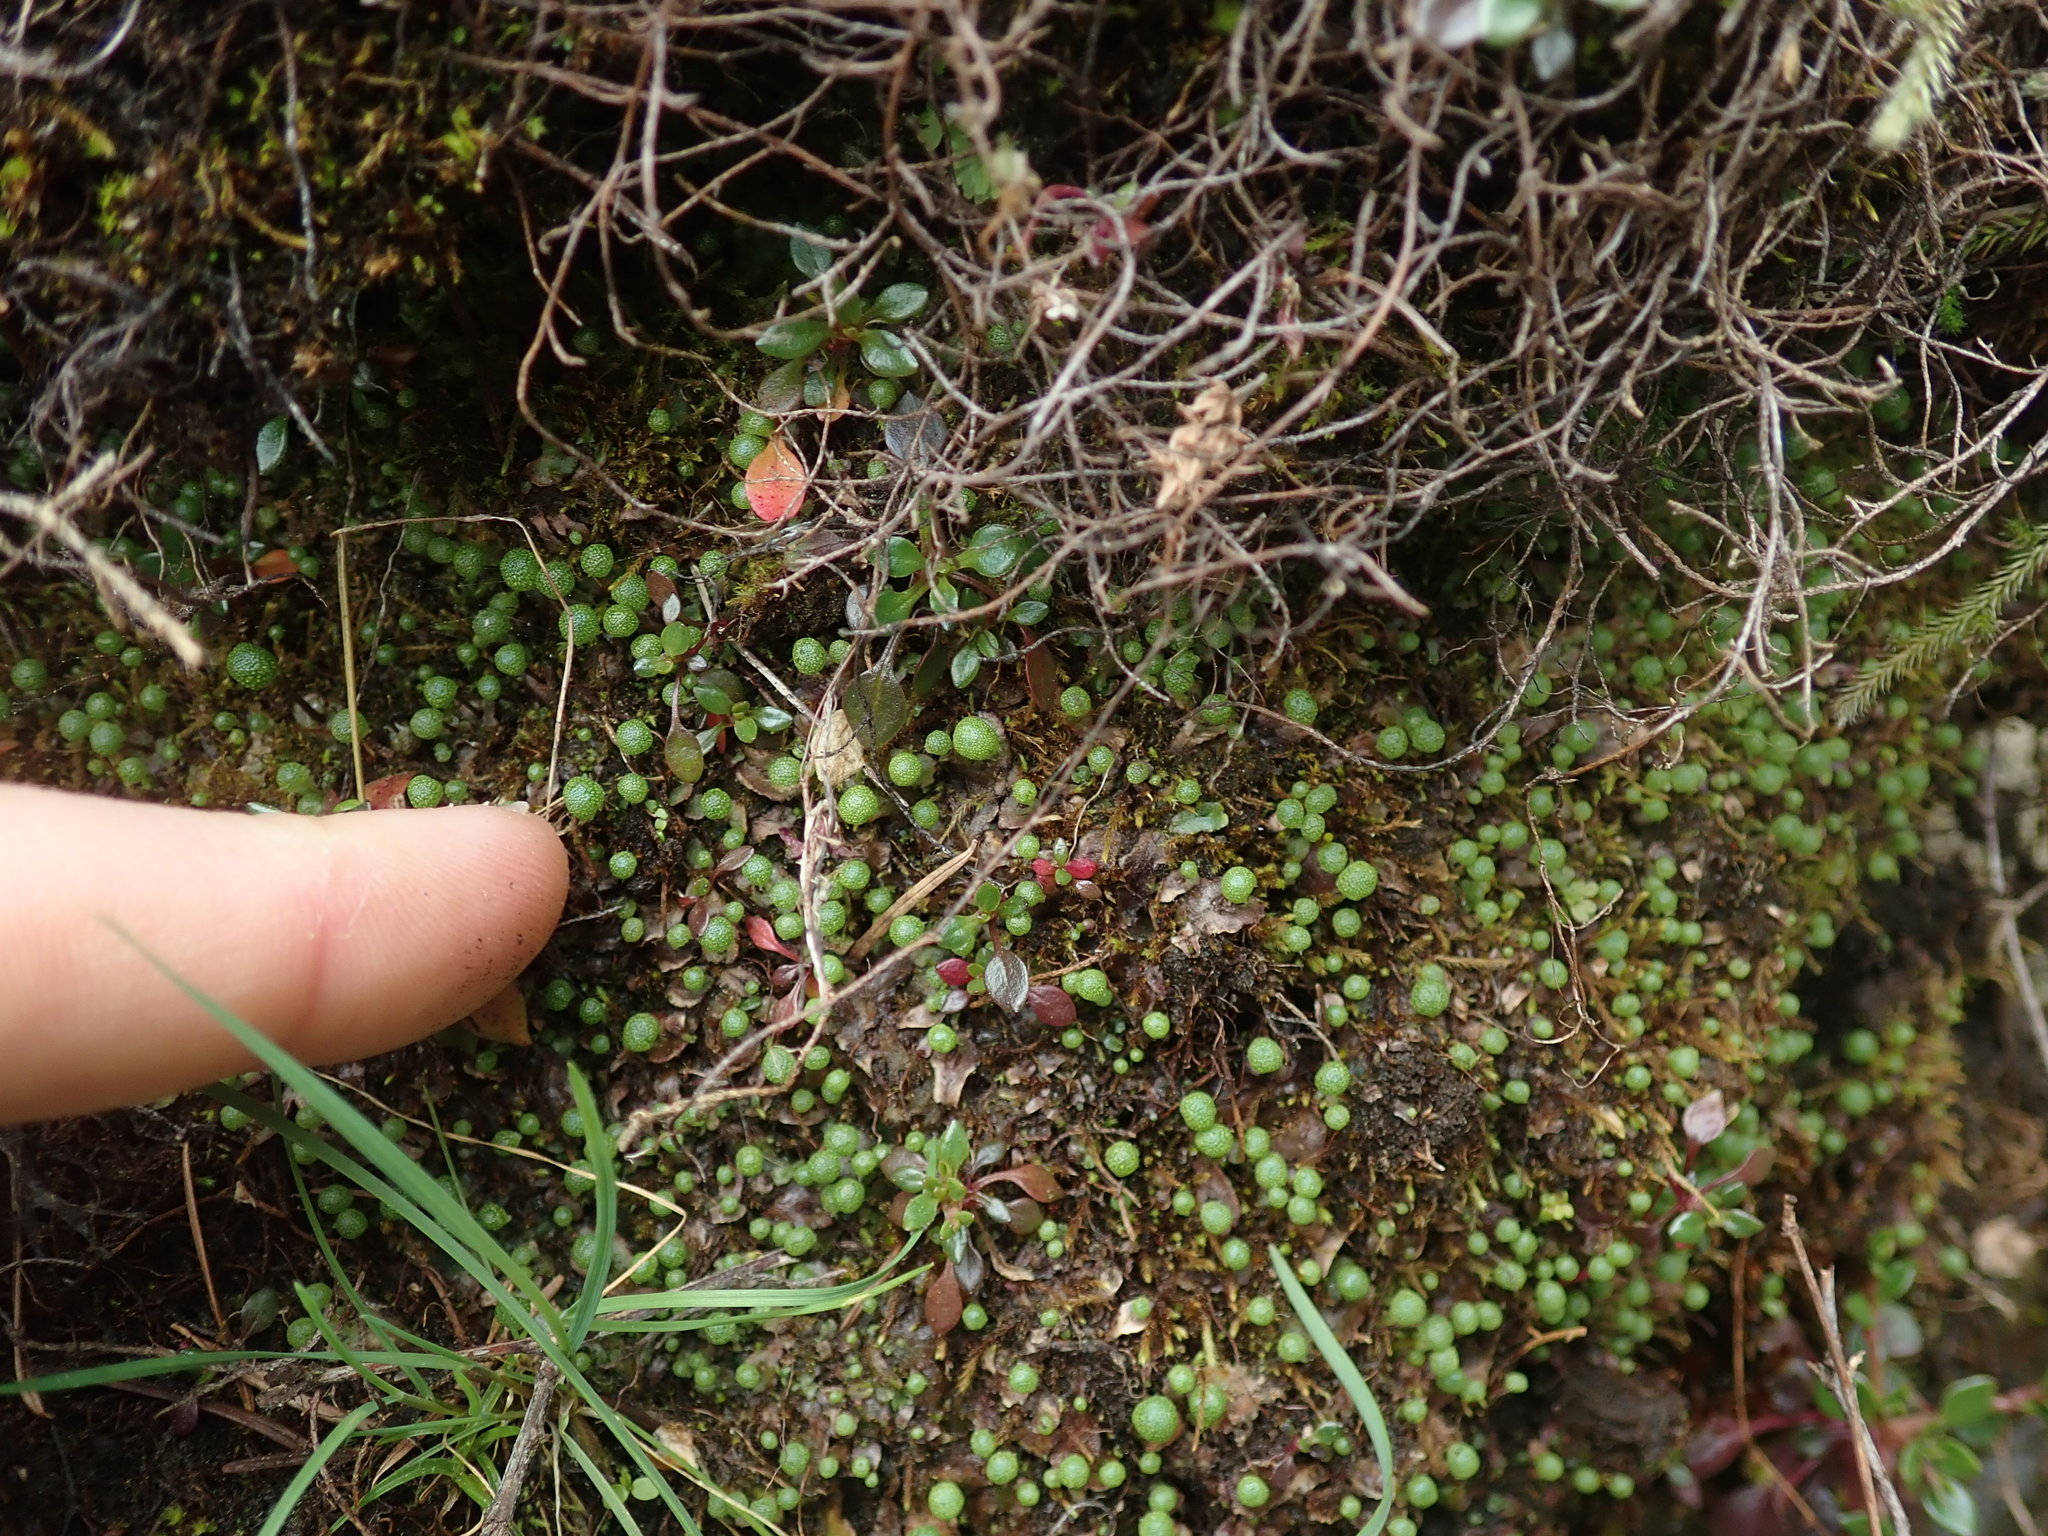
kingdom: Plantae
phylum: Marchantiophyta
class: Marchantiopsida
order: Marchantiales
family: Aytoniaceae
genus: Mannia
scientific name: Mannia gracilis
